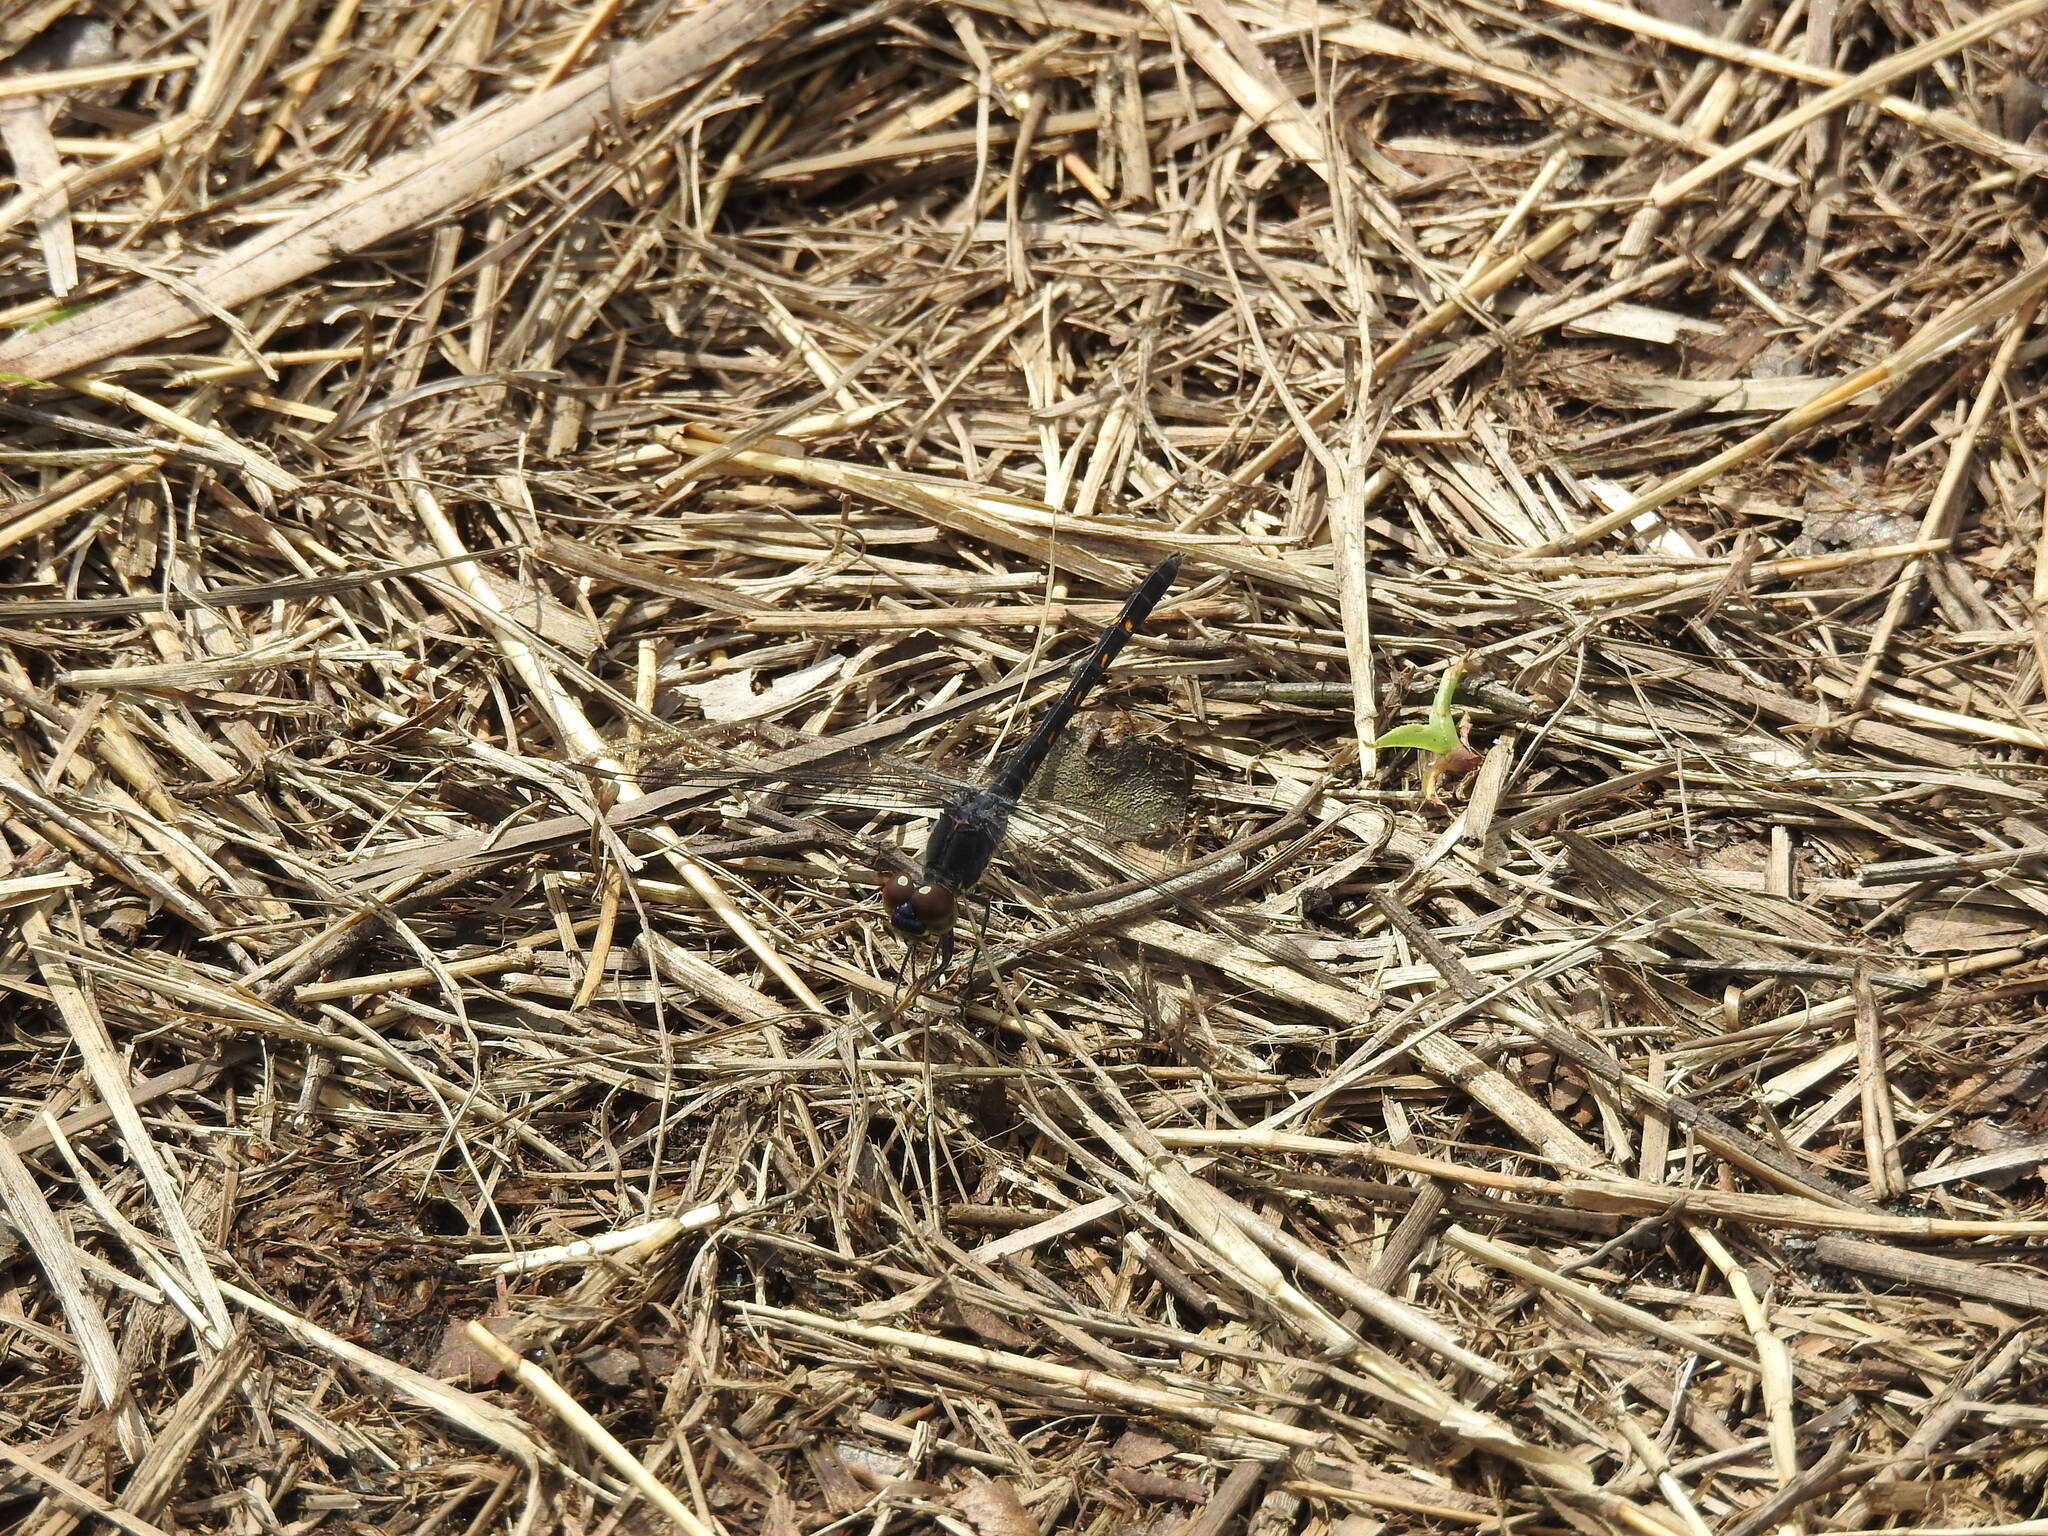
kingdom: Animalia
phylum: Arthropoda
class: Insecta
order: Odonata
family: Libellulidae
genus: Erythrodiplax
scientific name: Erythrodiplax berenice
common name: Seaside dragonlet
